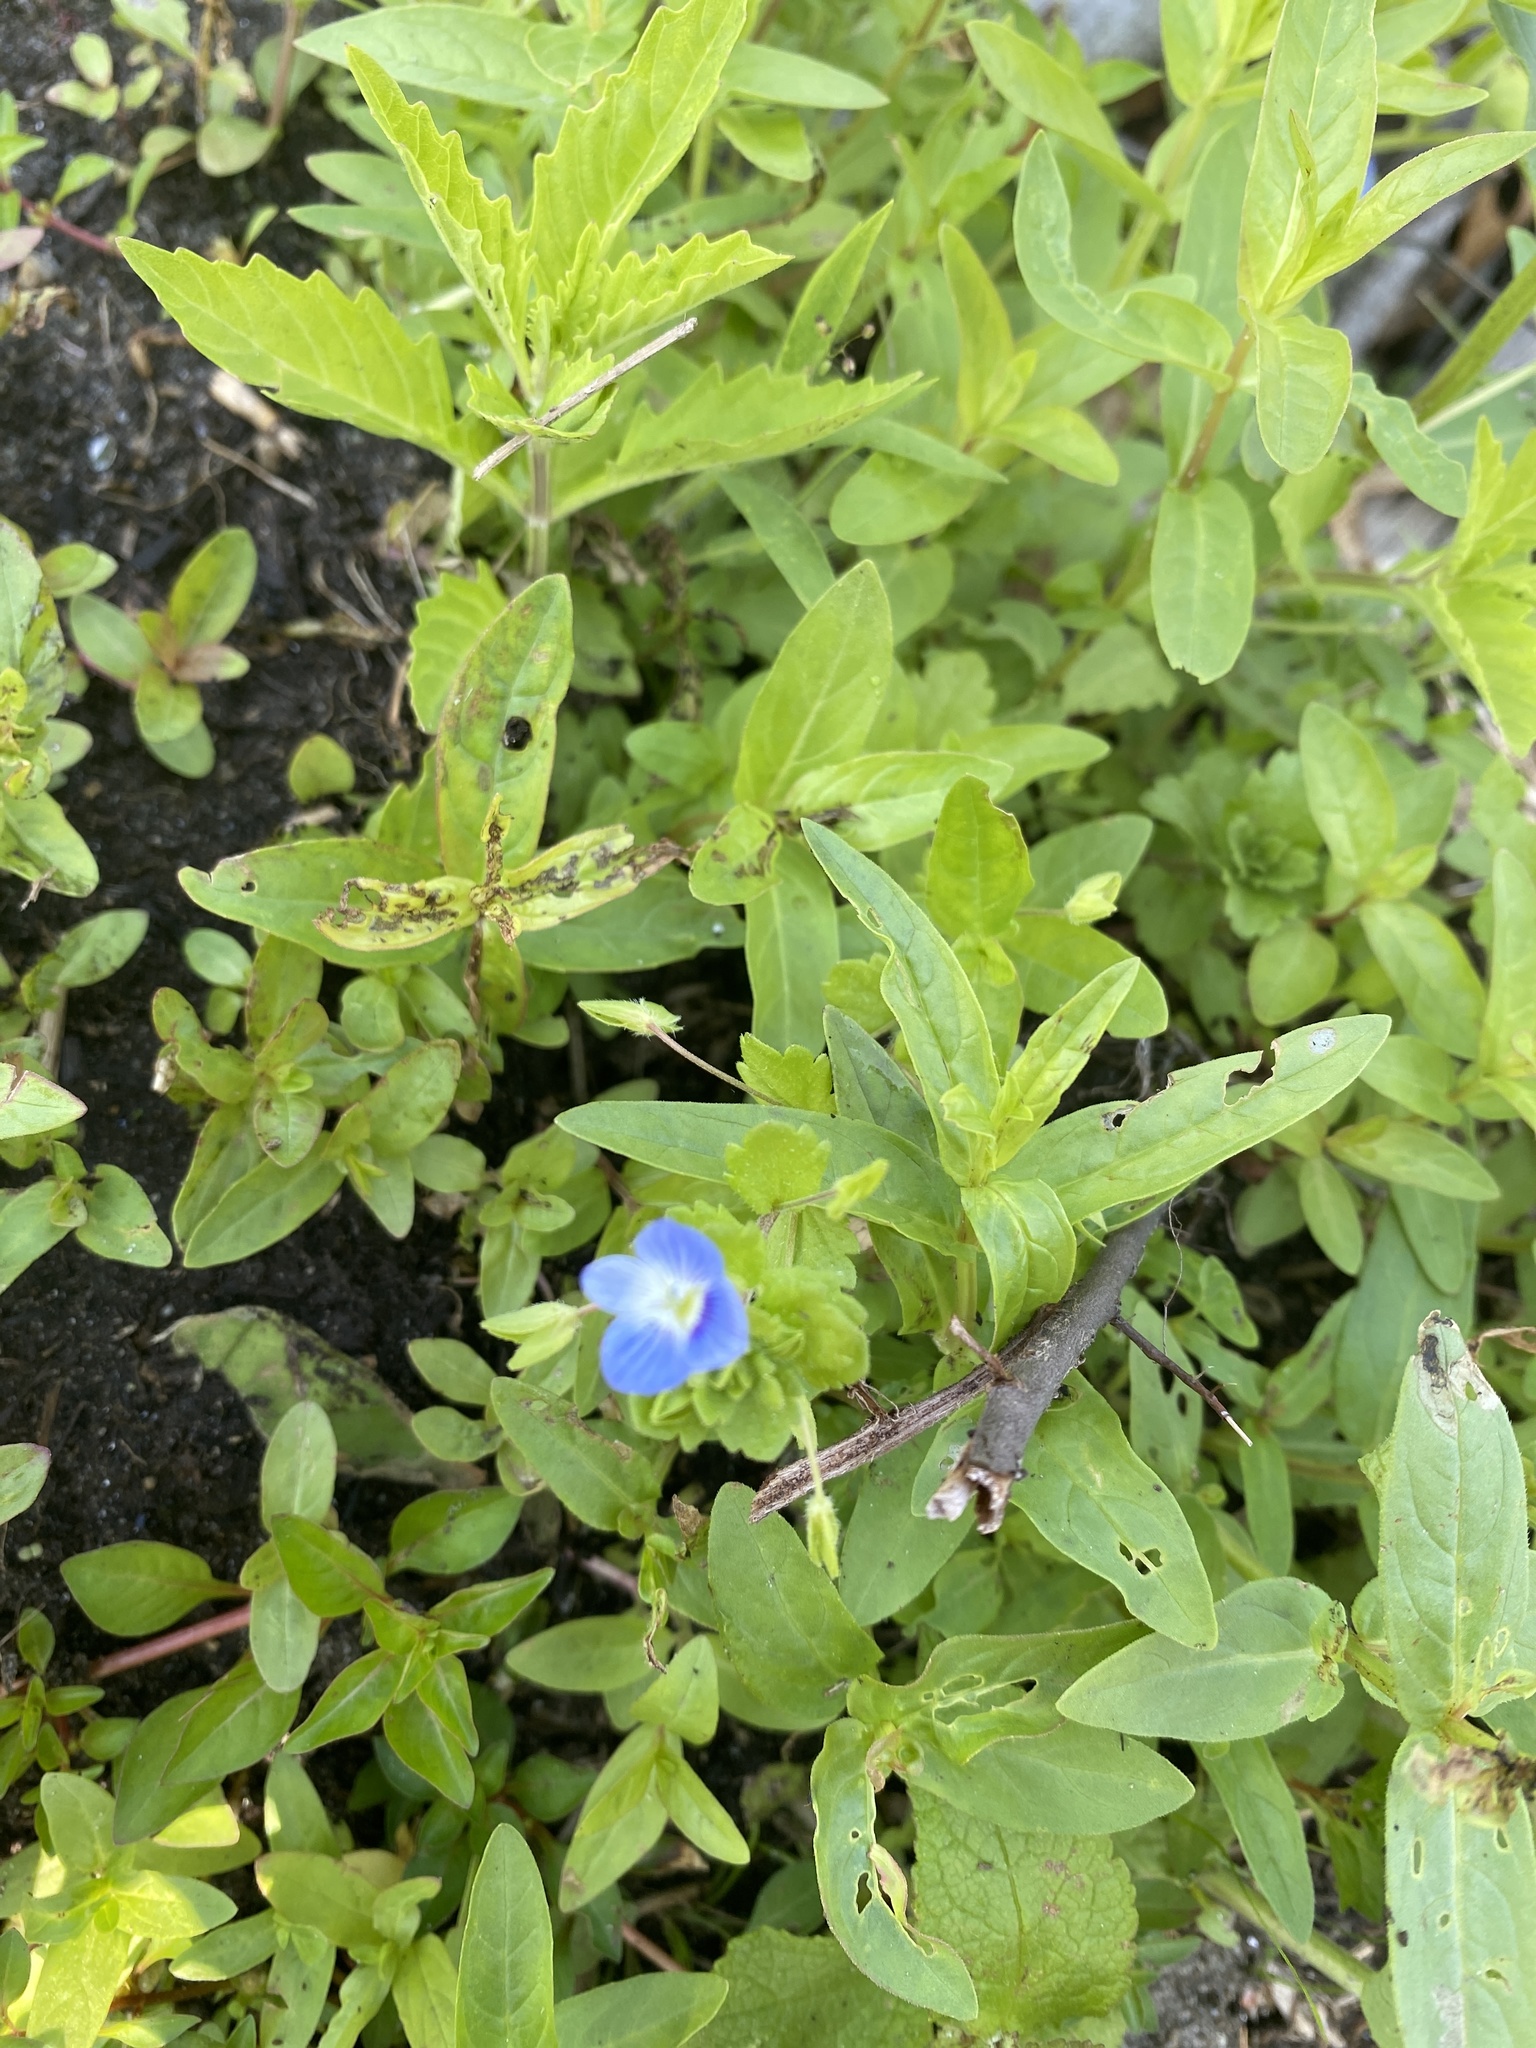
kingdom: Plantae
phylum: Tracheophyta
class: Magnoliopsida
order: Lamiales
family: Plantaginaceae
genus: Veronica
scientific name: Veronica persica
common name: Common field-speedwell
